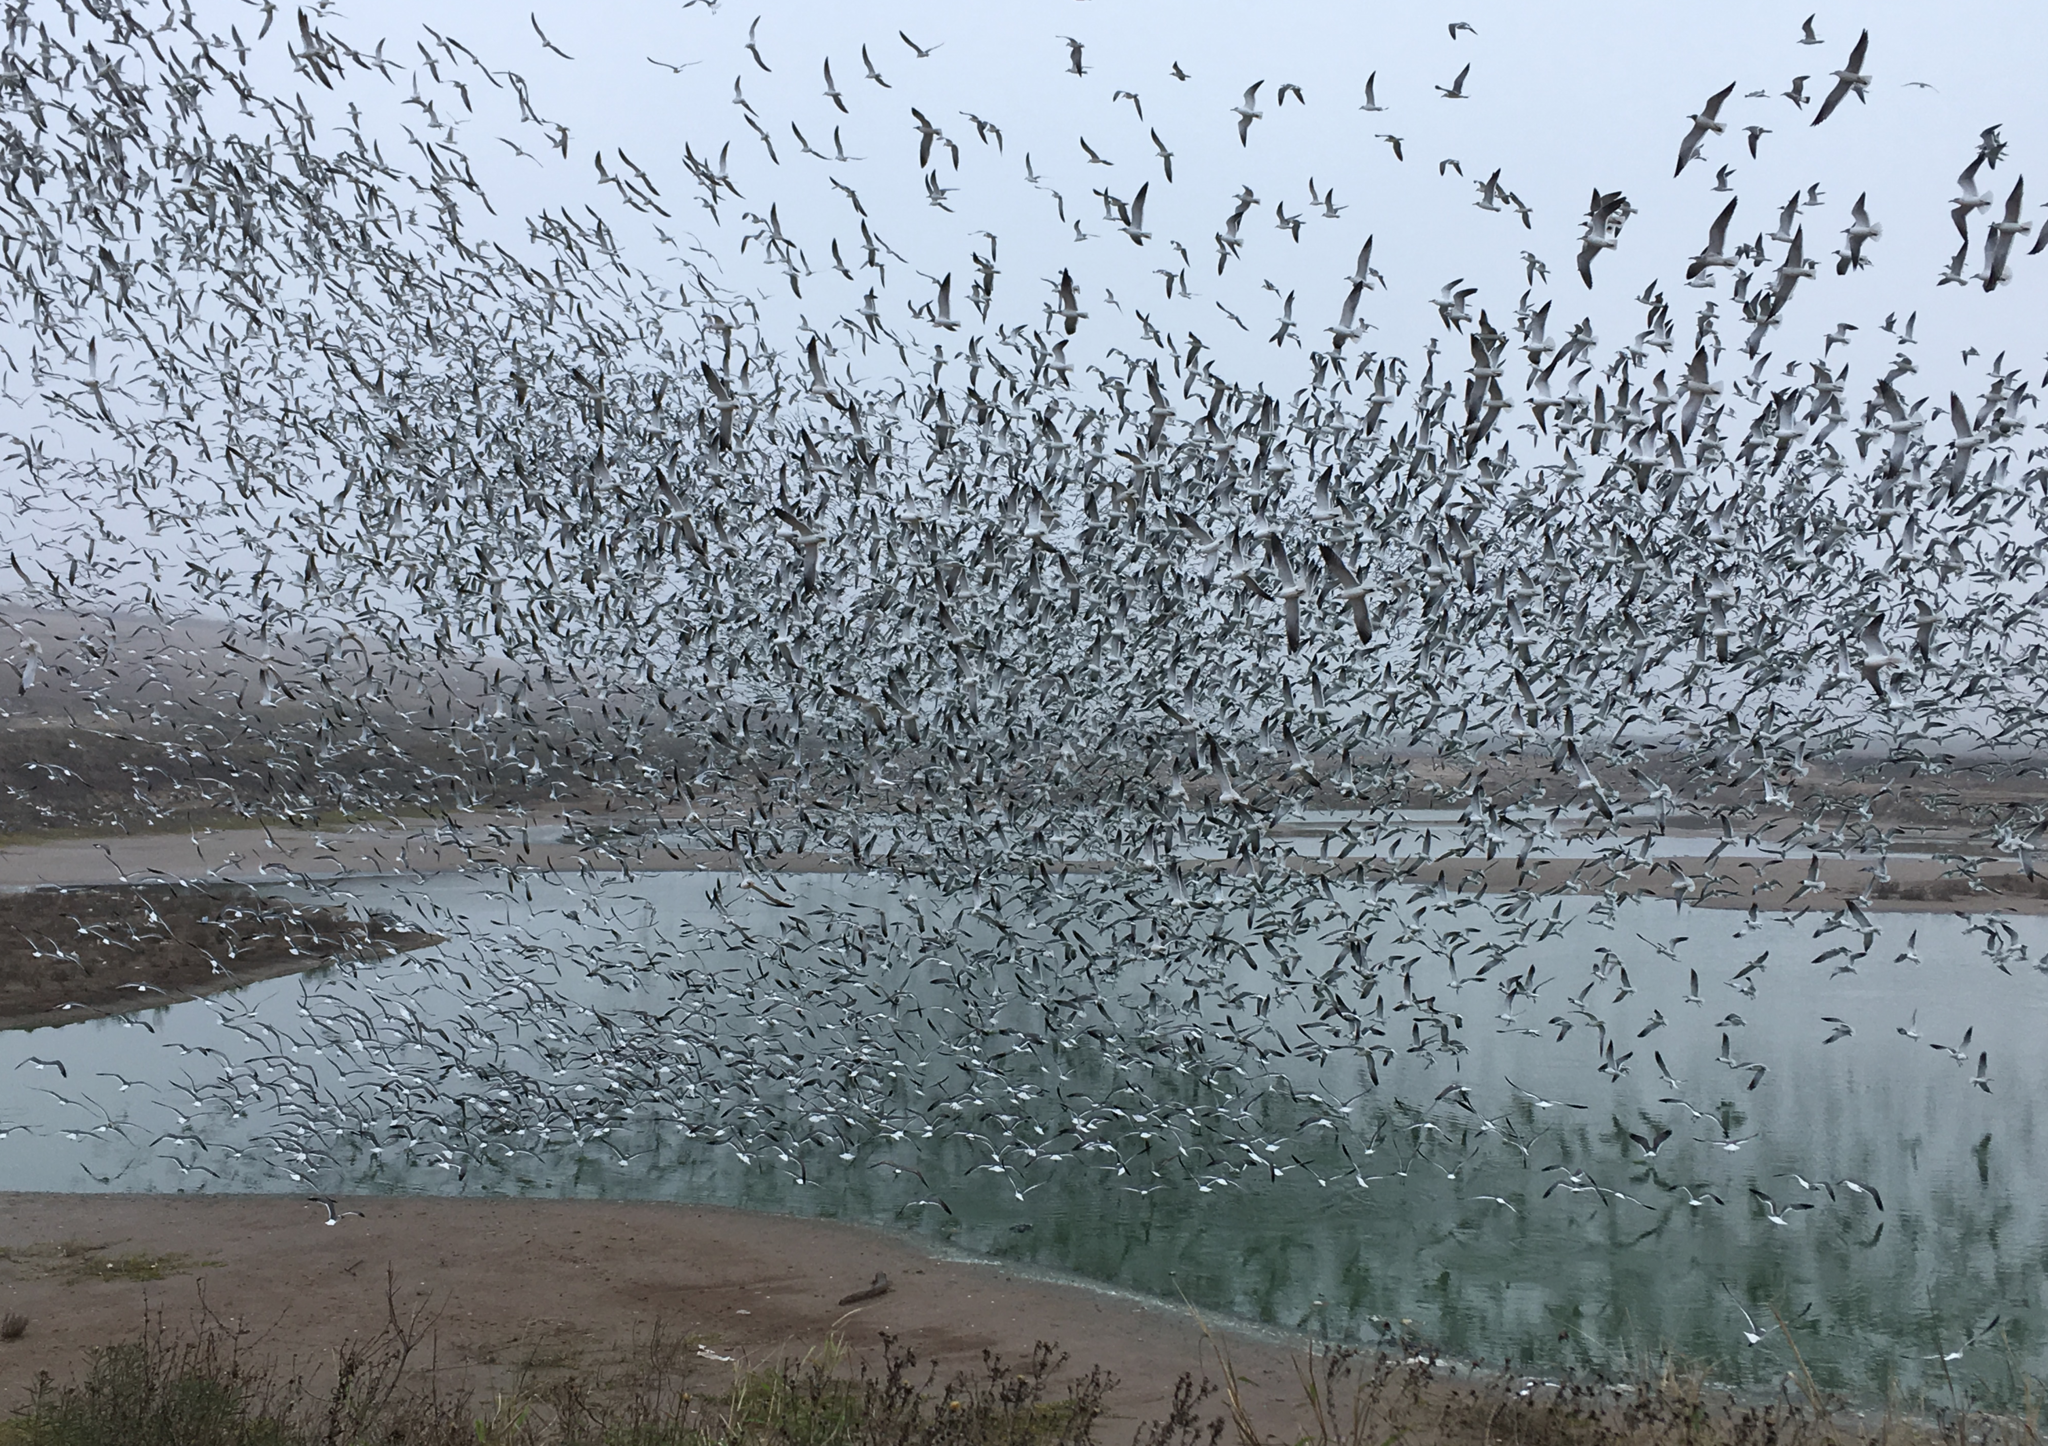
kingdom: Animalia
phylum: Chordata
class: Aves
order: Charadriiformes
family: Laridae
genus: Leucophaeus
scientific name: Leucophaeus atricilla
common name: Laughing gull
